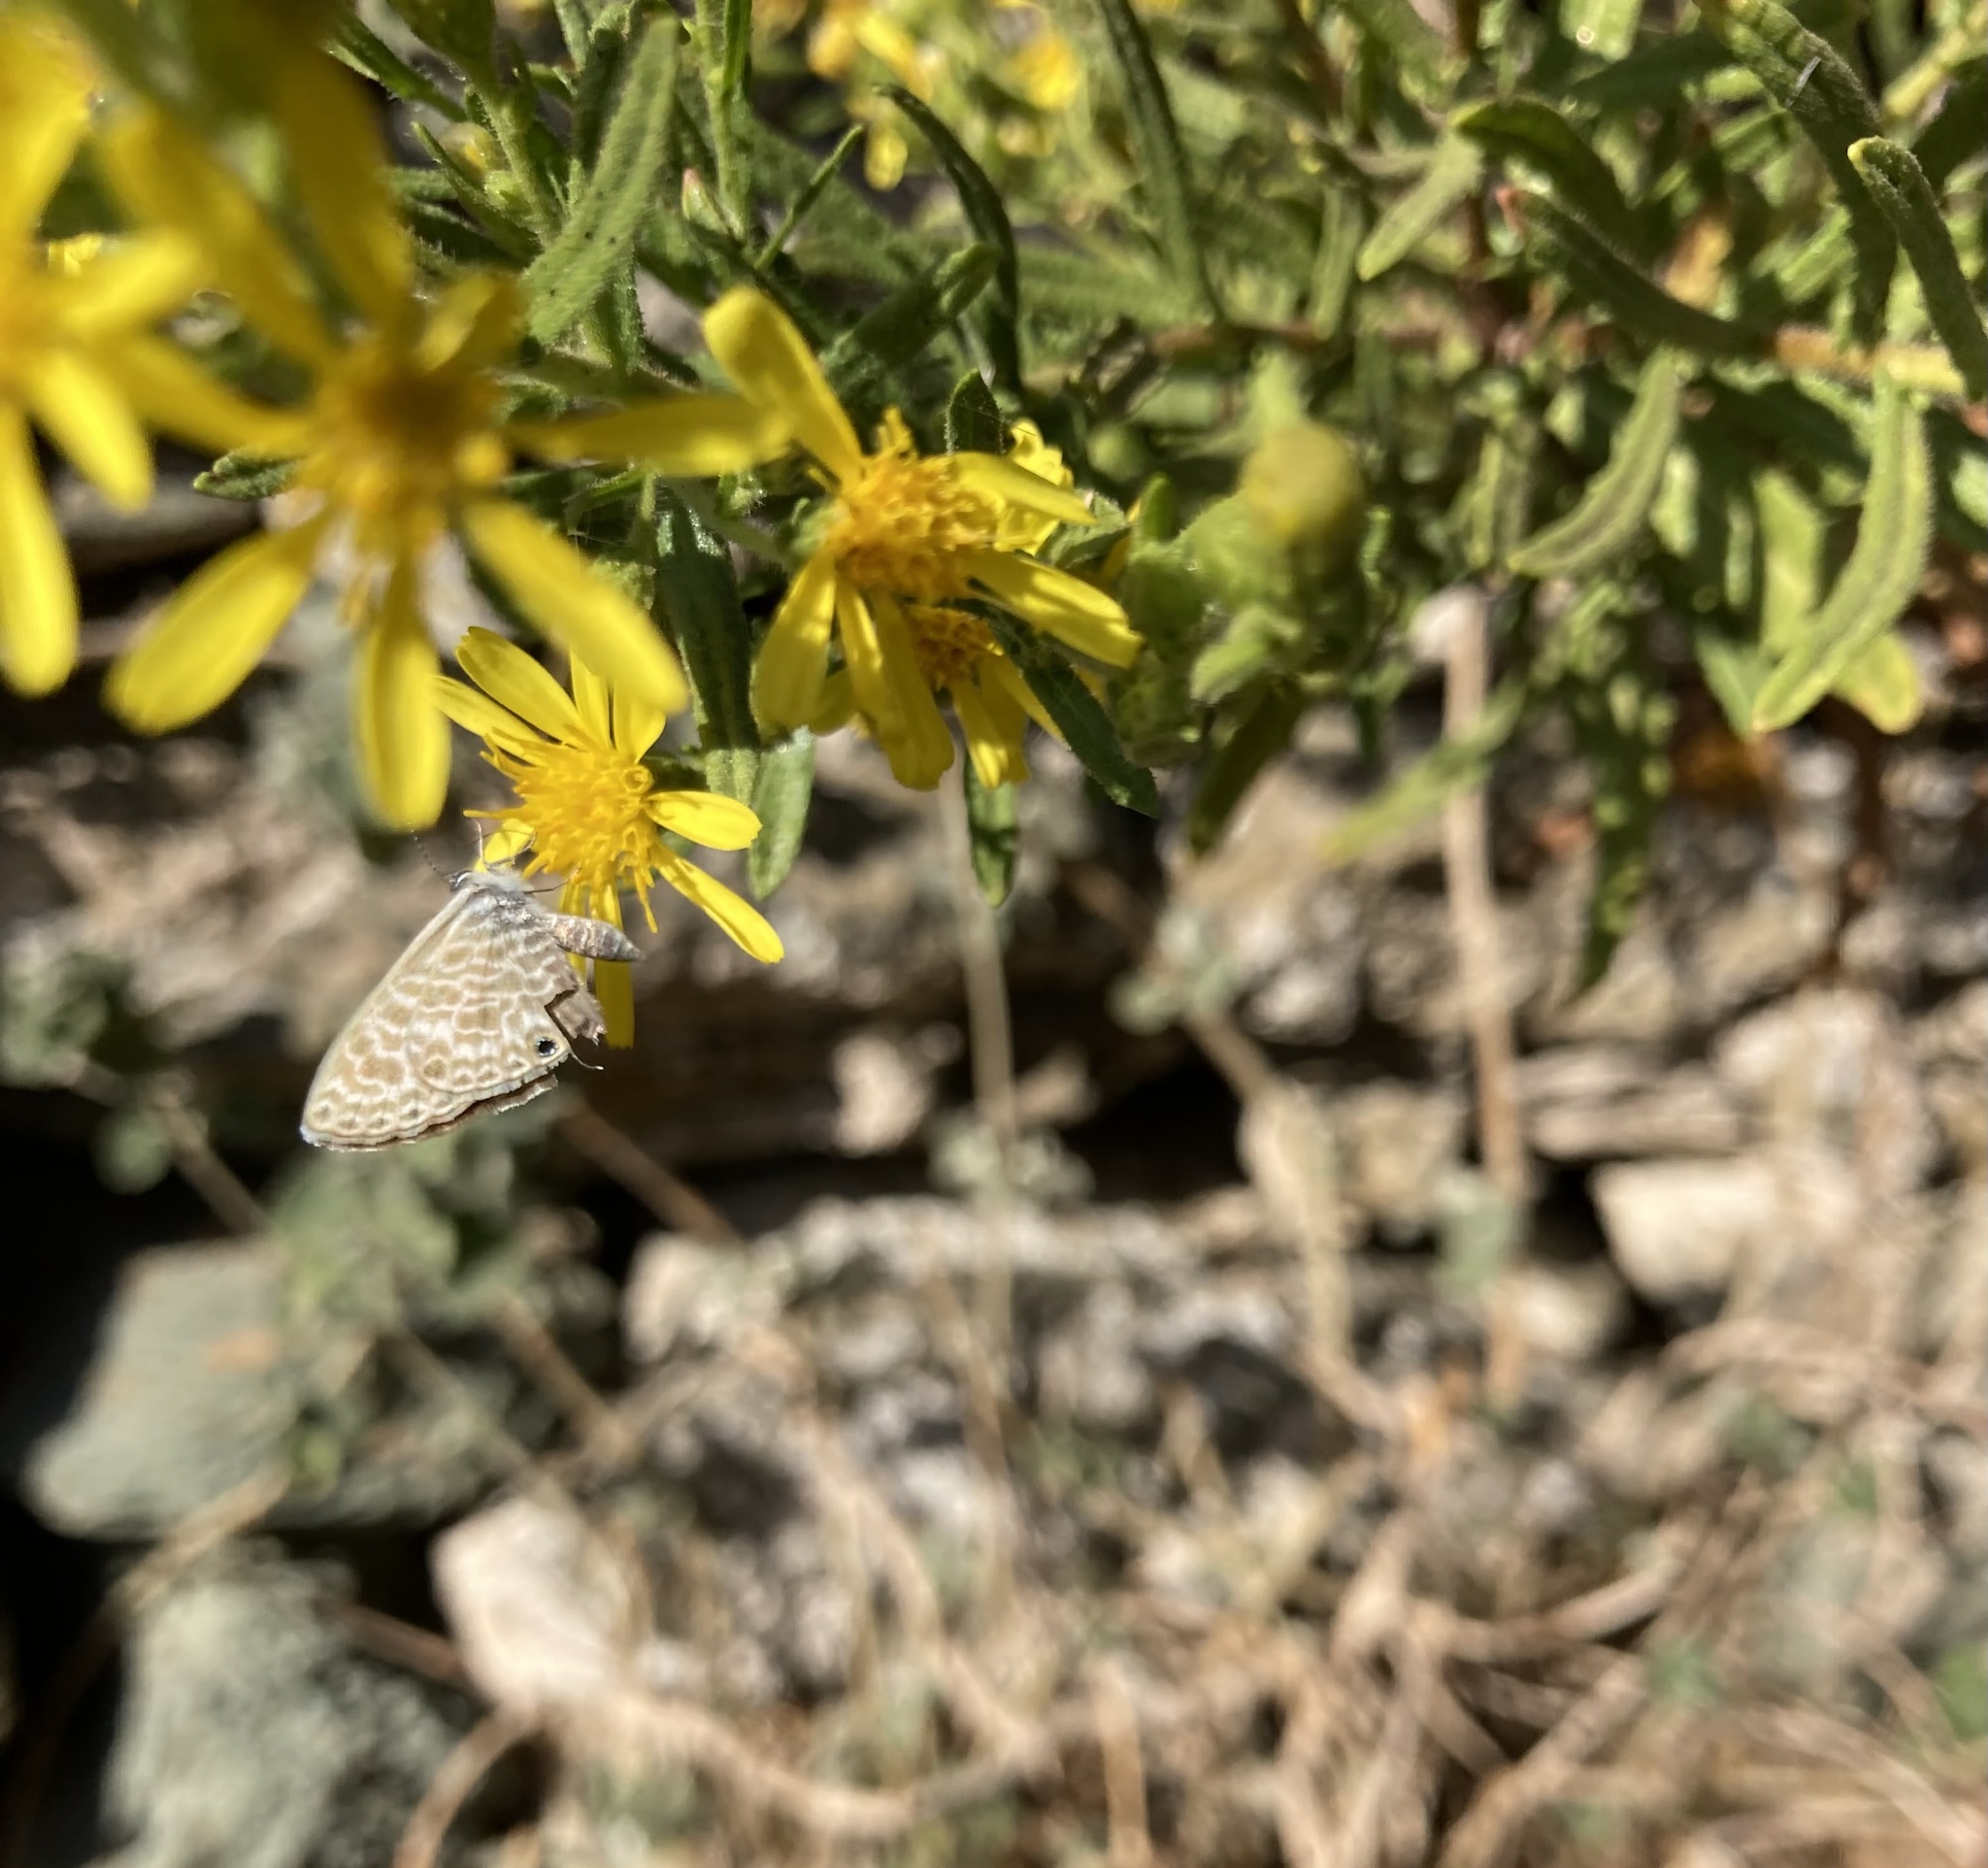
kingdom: Animalia
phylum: Arthropoda
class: Insecta
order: Lepidoptera
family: Lycaenidae
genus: Leptotes
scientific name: Leptotes pirithous
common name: Lang's short-tailed blue
